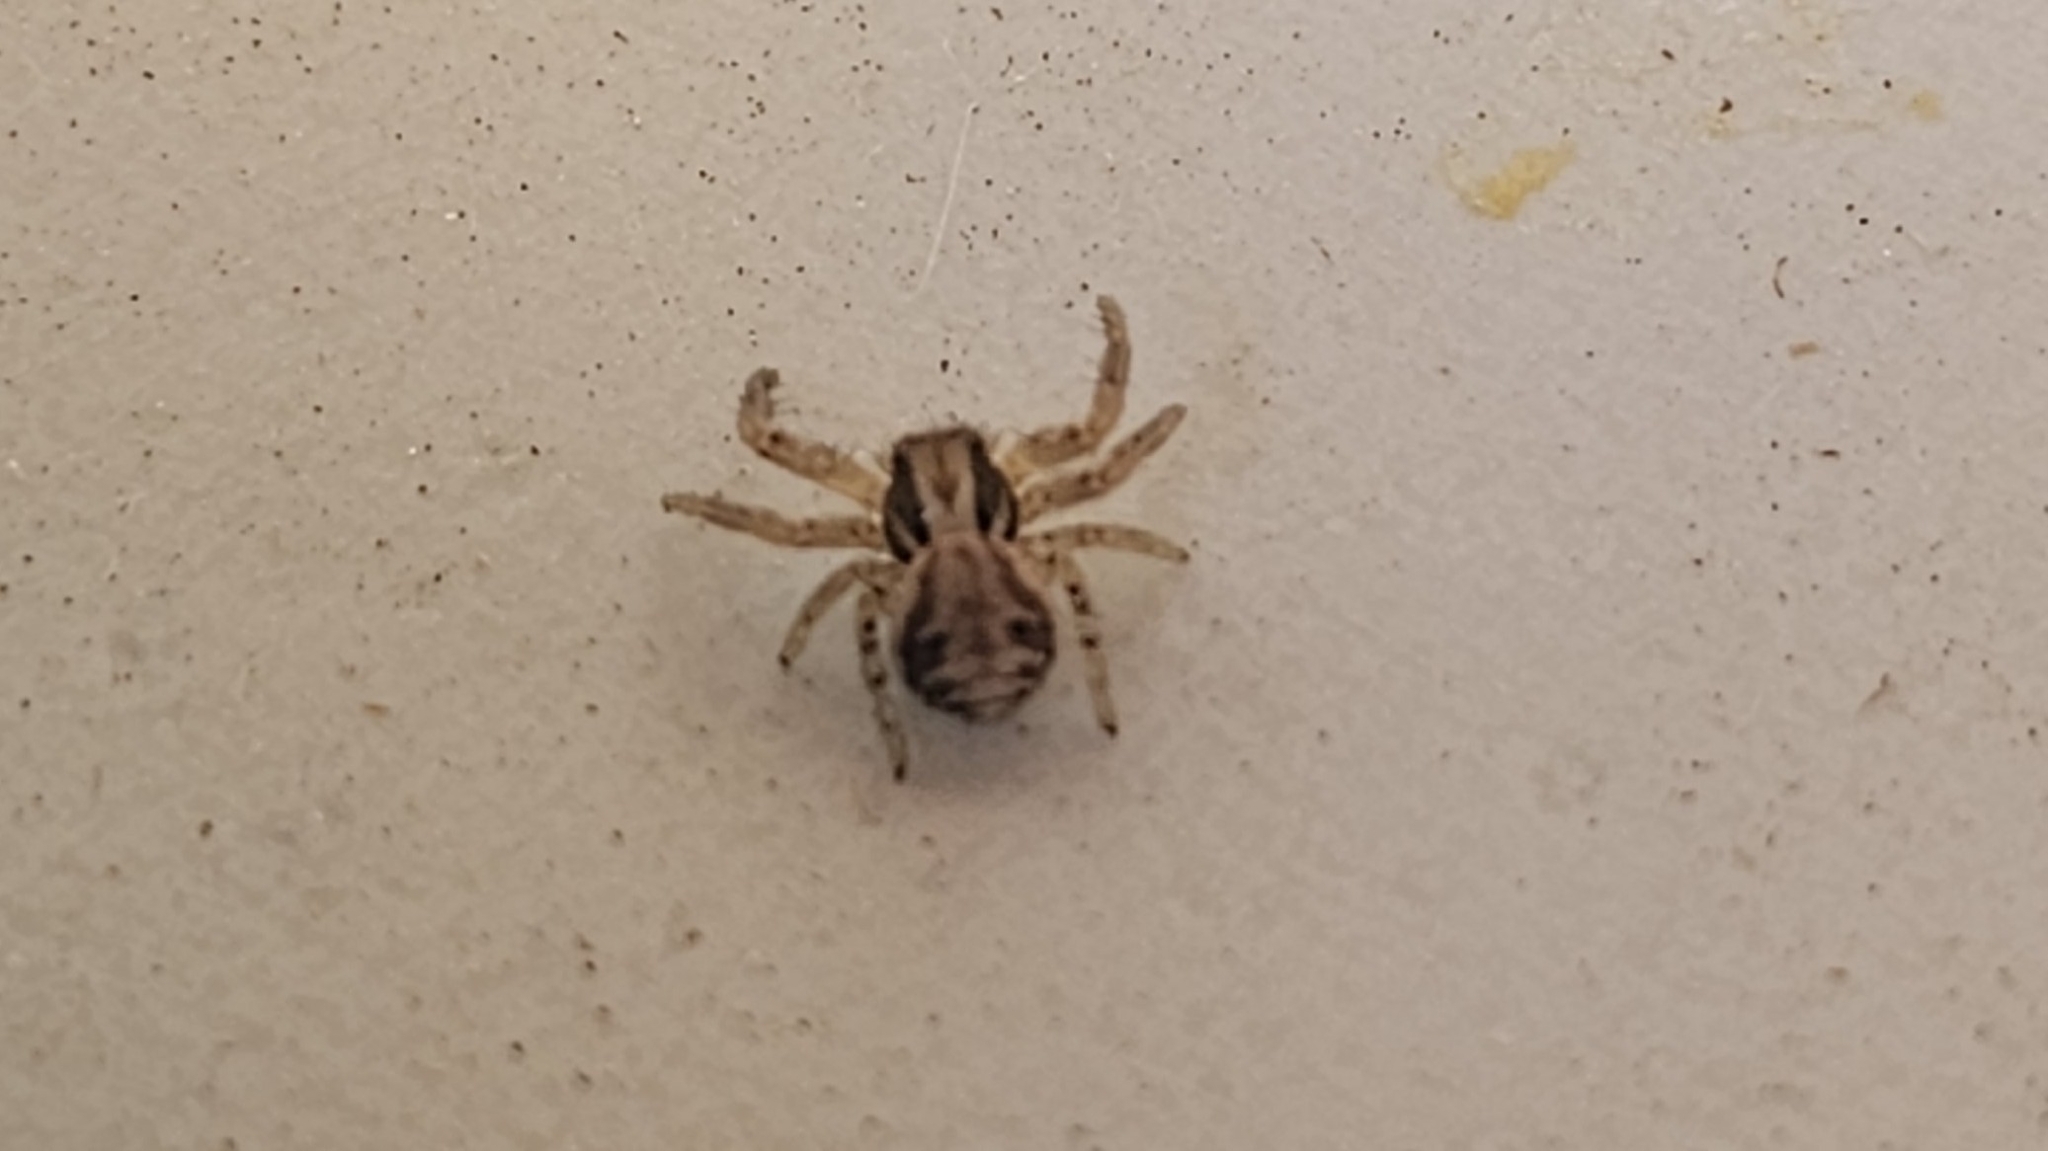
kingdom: Animalia
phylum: Arthropoda
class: Arachnida
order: Araneae
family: Thomisidae
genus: Xysticus
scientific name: Xysticus
